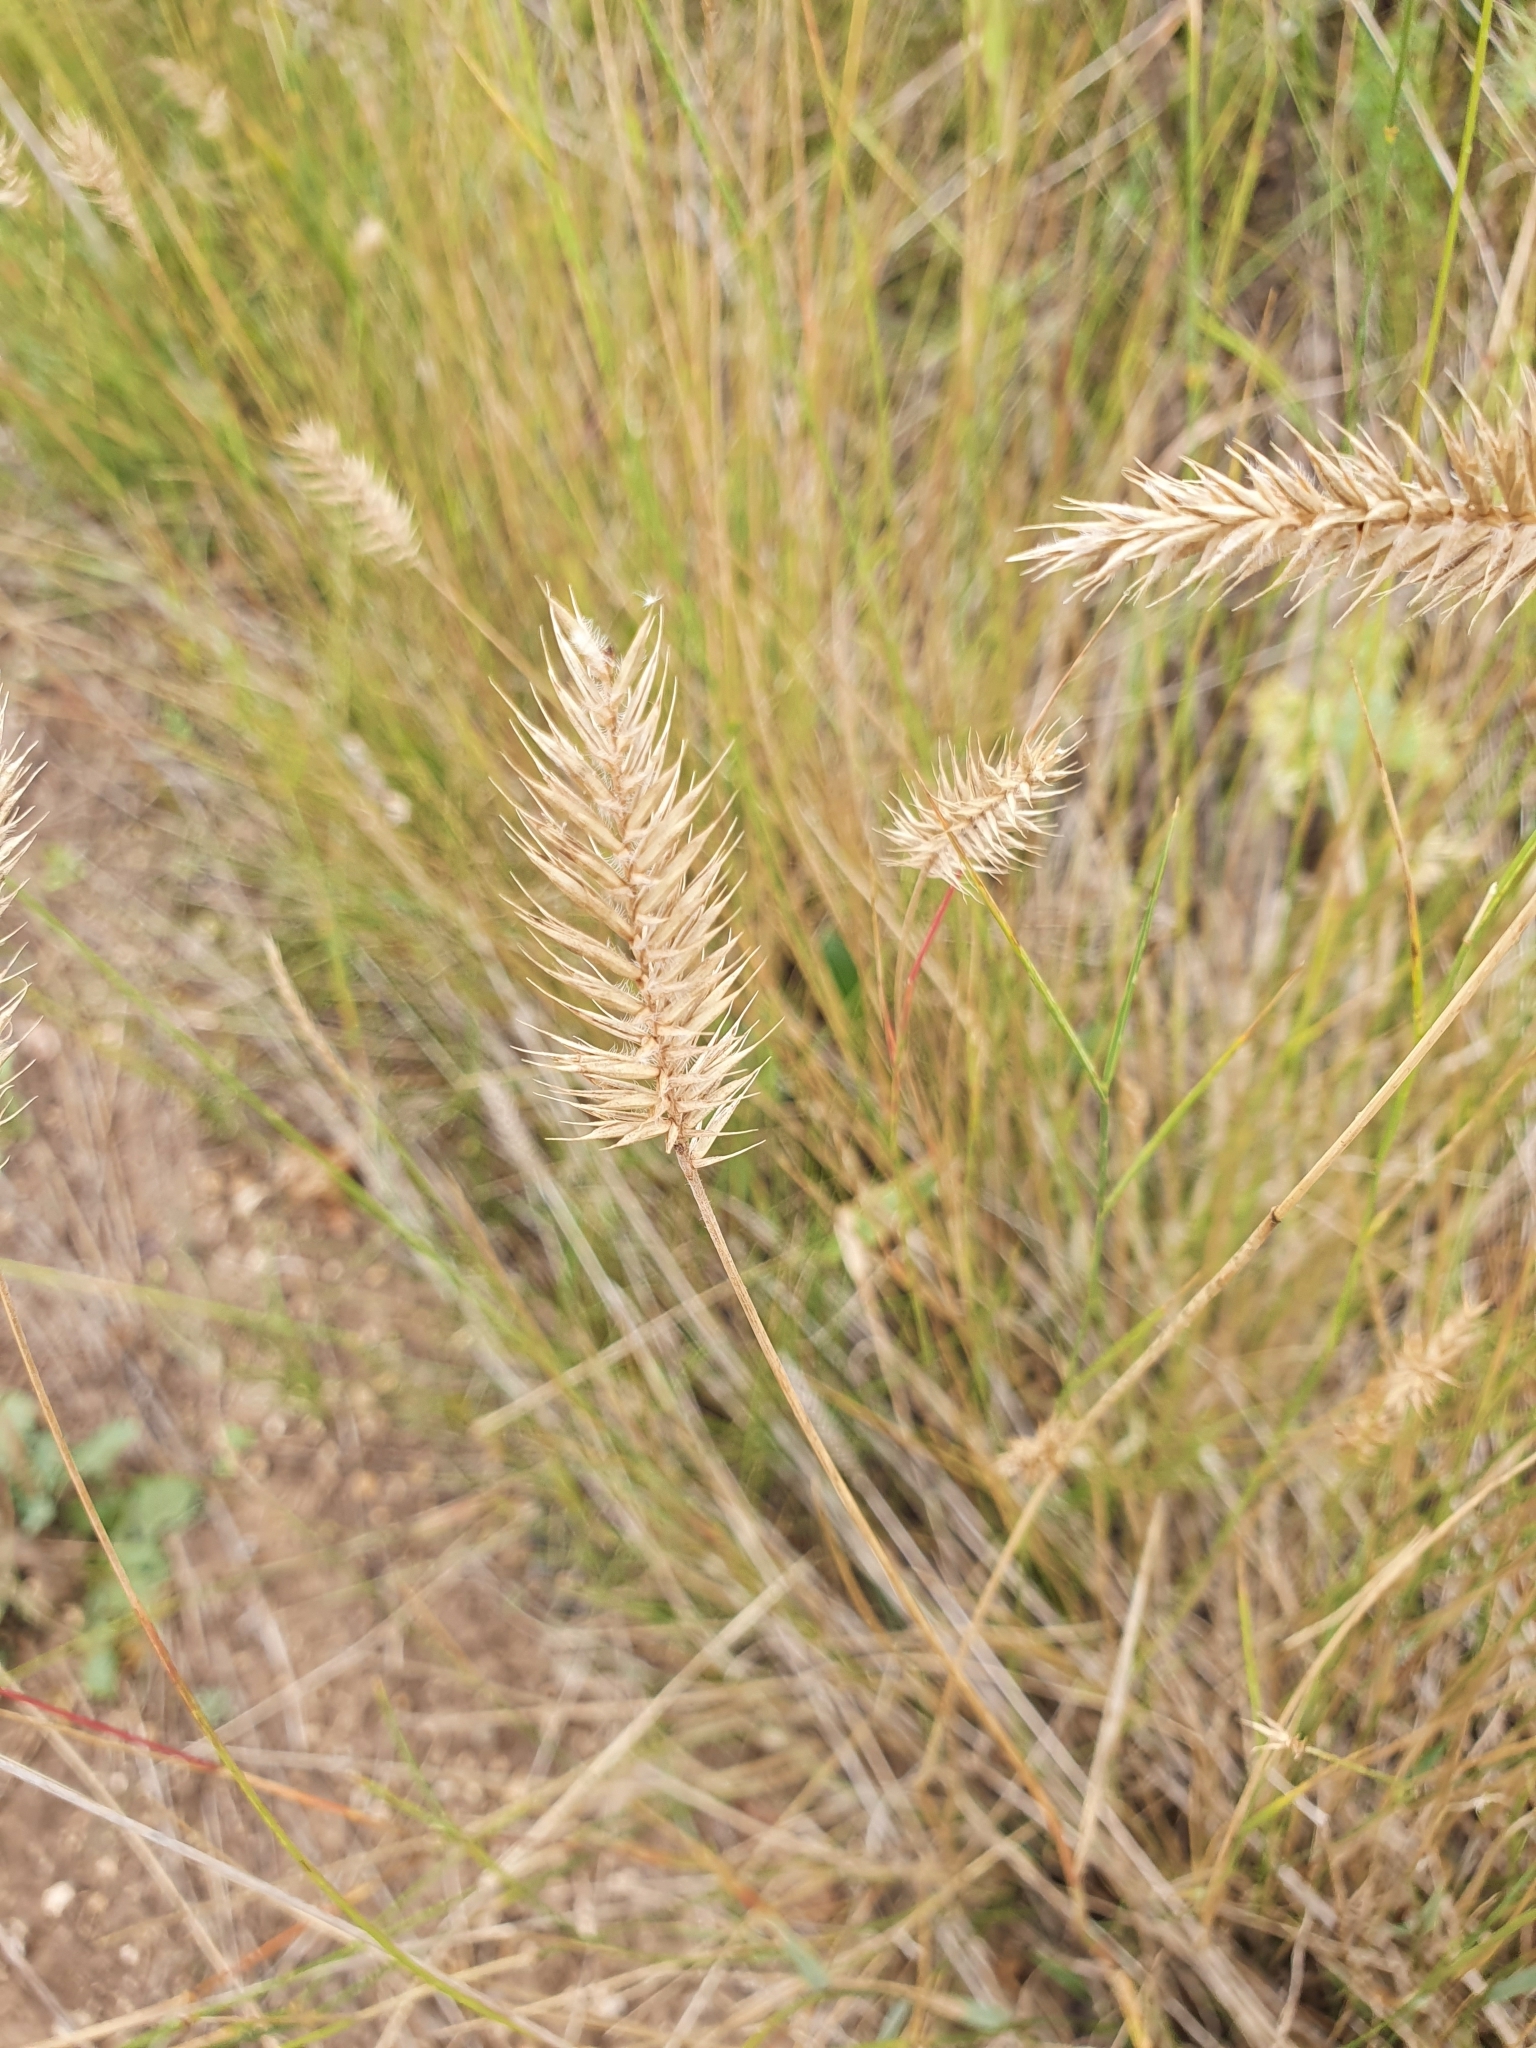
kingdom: Plantae
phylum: Tracheophyta
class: Liliopsida
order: Poales
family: Poaceae
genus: Agropyron
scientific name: Agropyron cristatum
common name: Crested wheatgrass
